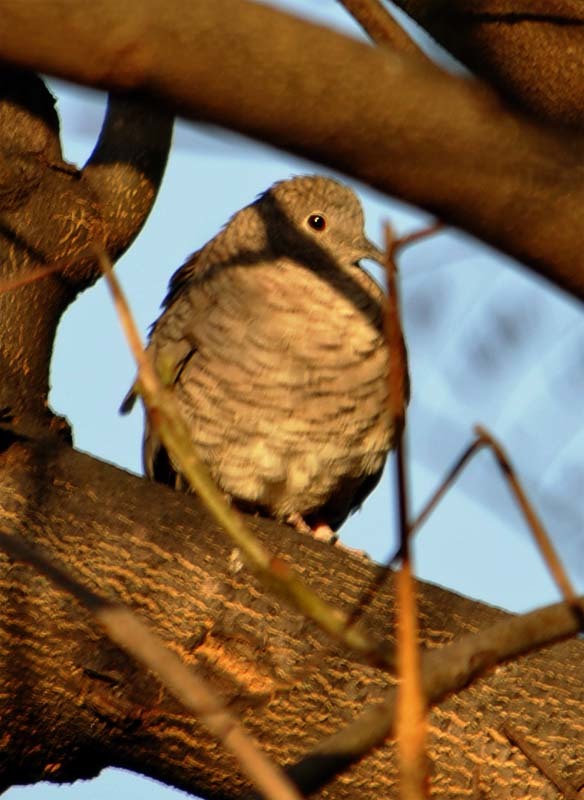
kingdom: Animalia
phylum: Chordata
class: Aves
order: Columbiformes
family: Columbidae
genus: Columbina
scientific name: Columbina inca
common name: Inca dove
